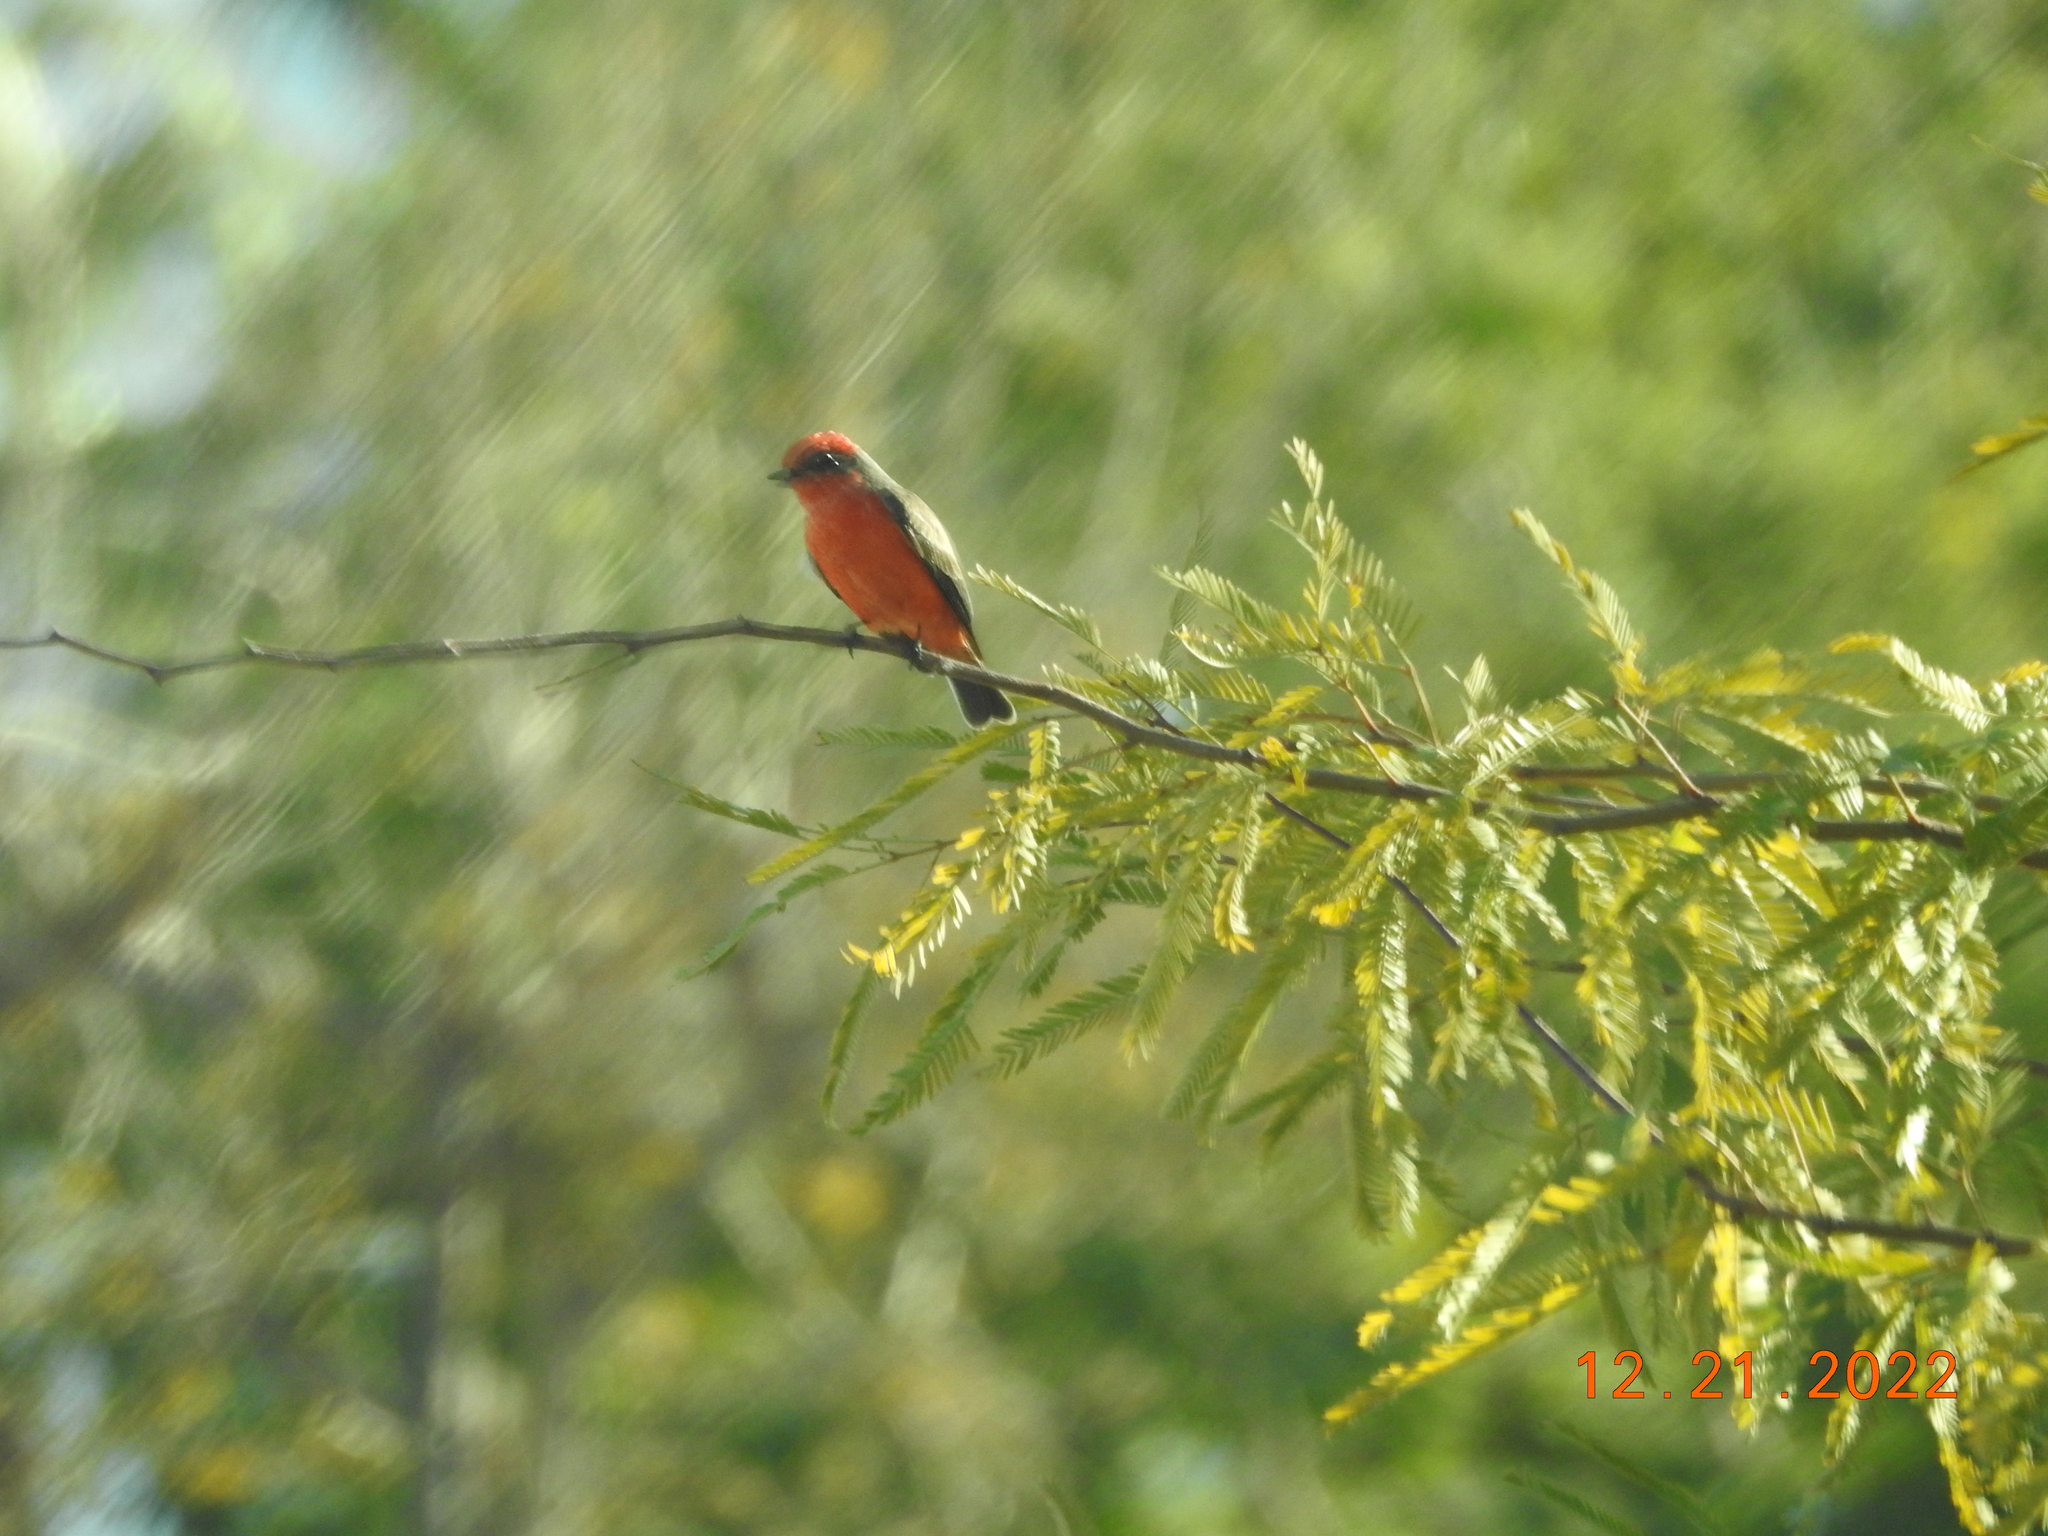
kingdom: Animalia
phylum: Chordata
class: Aves
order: Passeriformes
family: Tyrannidae
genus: Pyrocephalus
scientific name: Pyrocephalus rubinus
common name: Vermilion flycatcher
